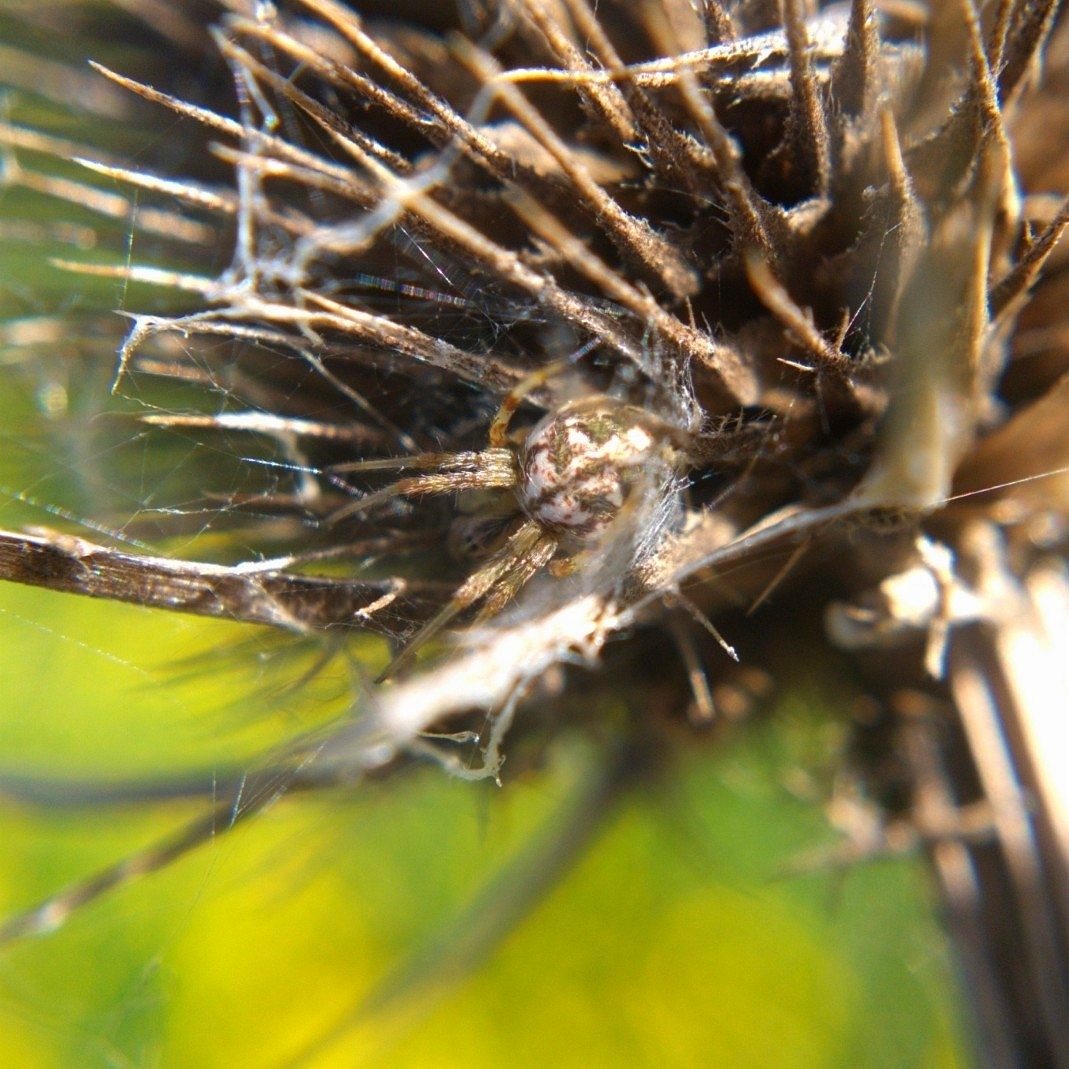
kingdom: Animalia
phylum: Arthropoda
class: Arachnida
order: Araneae
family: Araneidae
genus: Neoscona
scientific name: Neoscona arabesca
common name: Orb weavers
